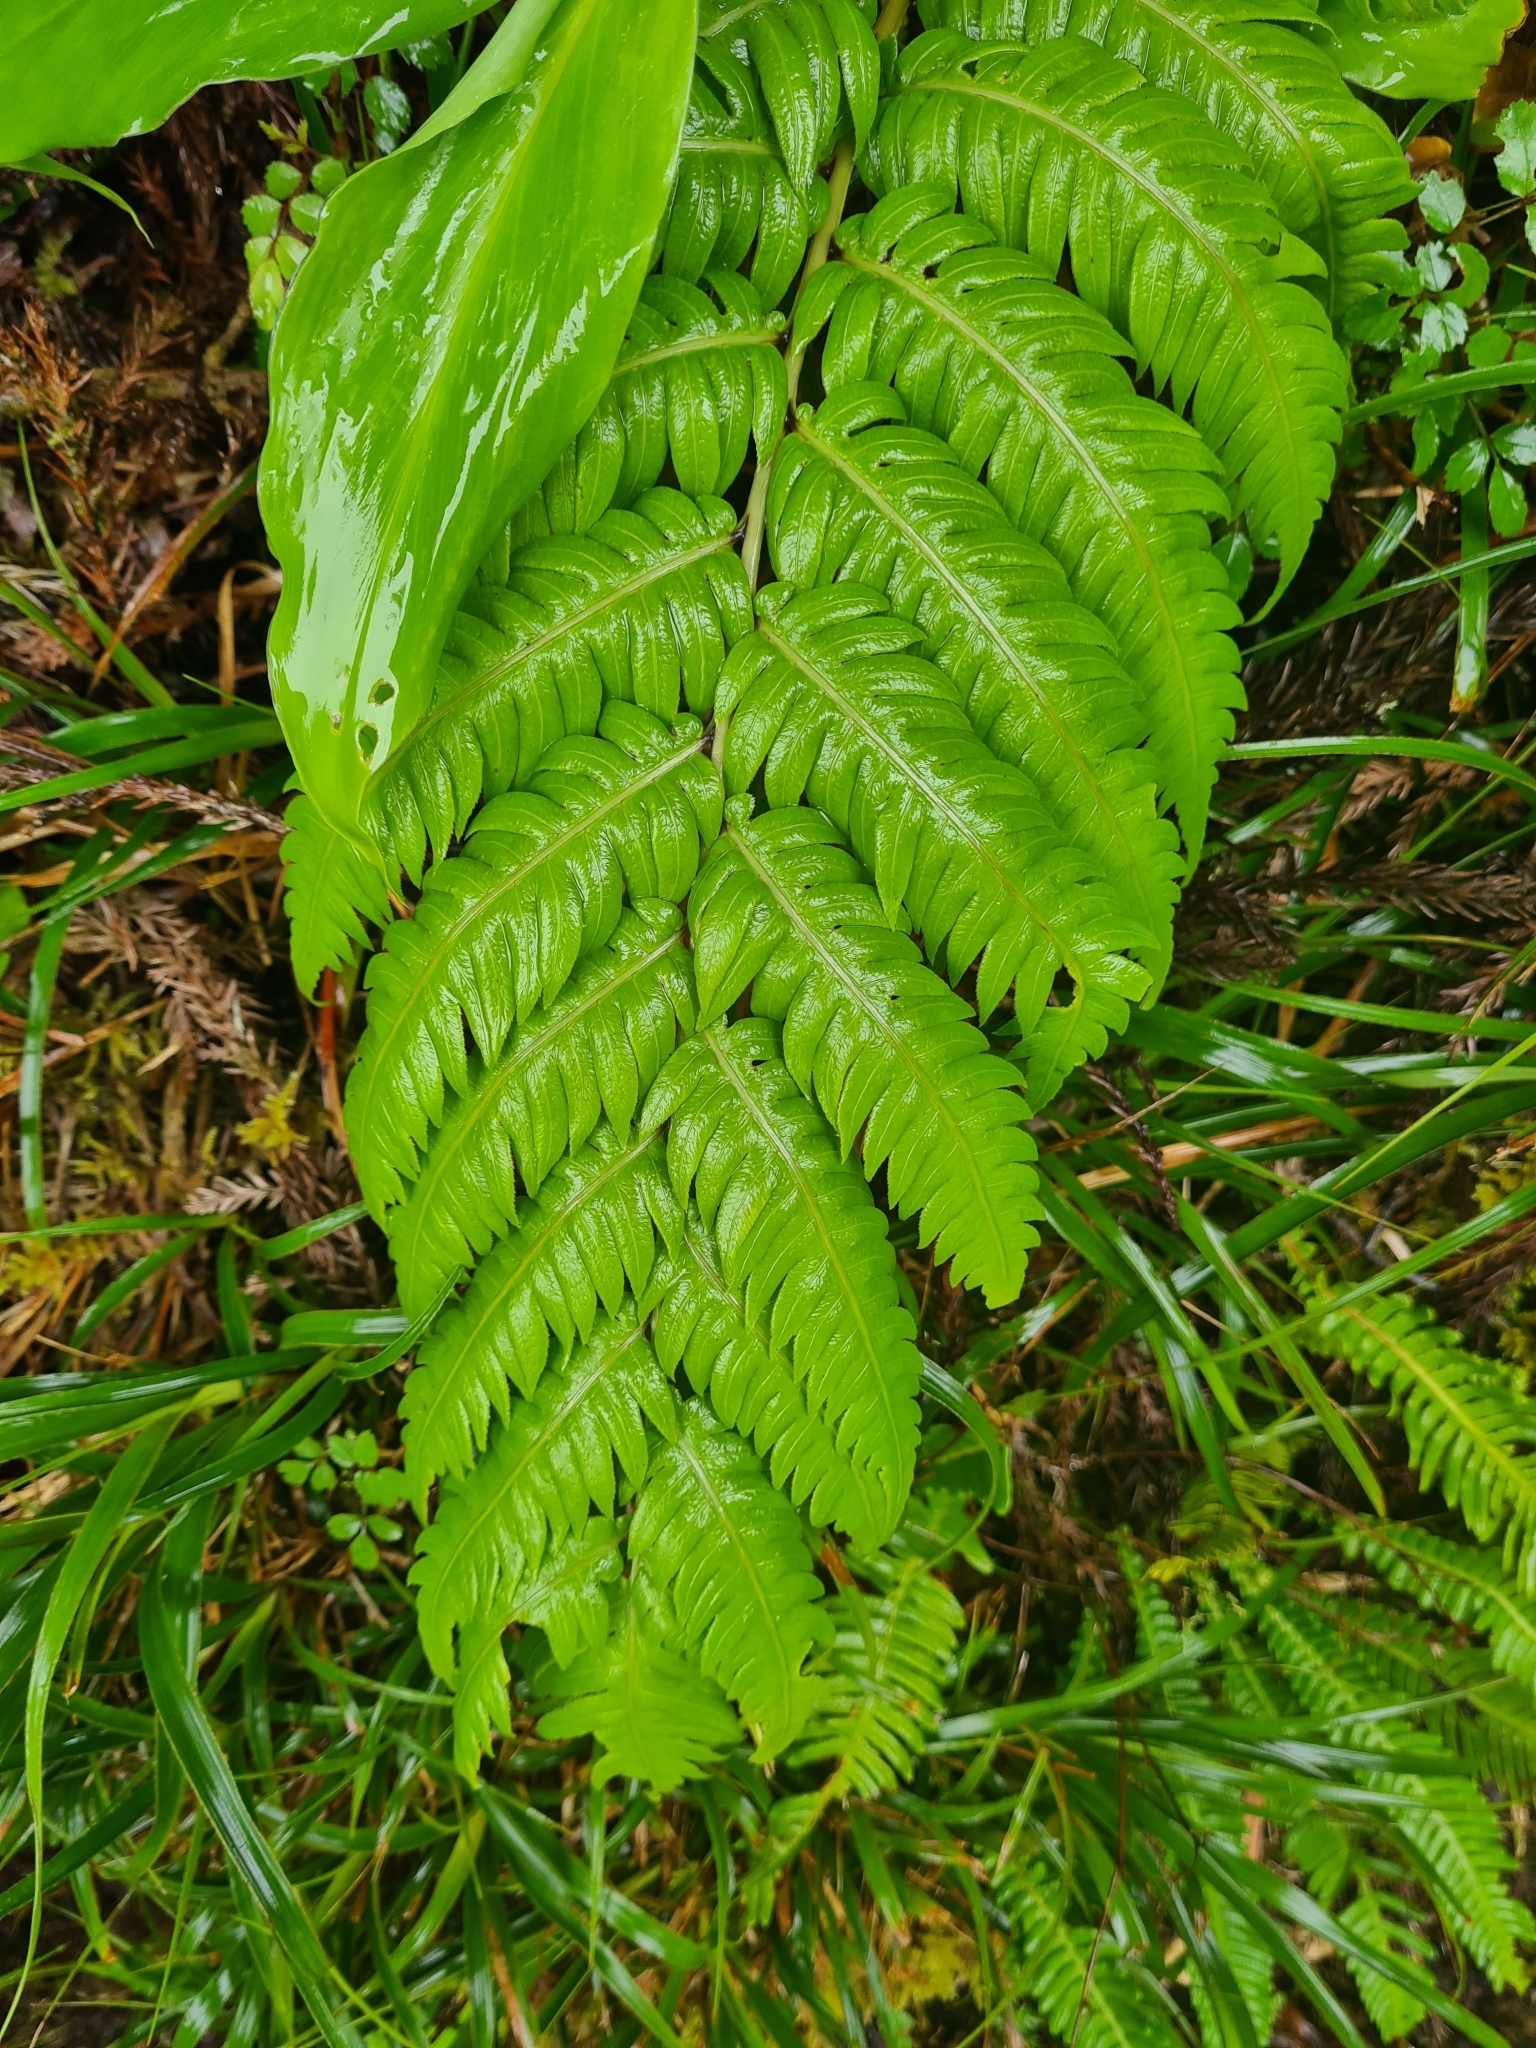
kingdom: Plantae
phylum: Tracheophyta
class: Polypodiopsida
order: Polypodiales
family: Blechnaceae
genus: Woodwardia
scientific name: Woodwardia radicans
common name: Rooting chainfern
